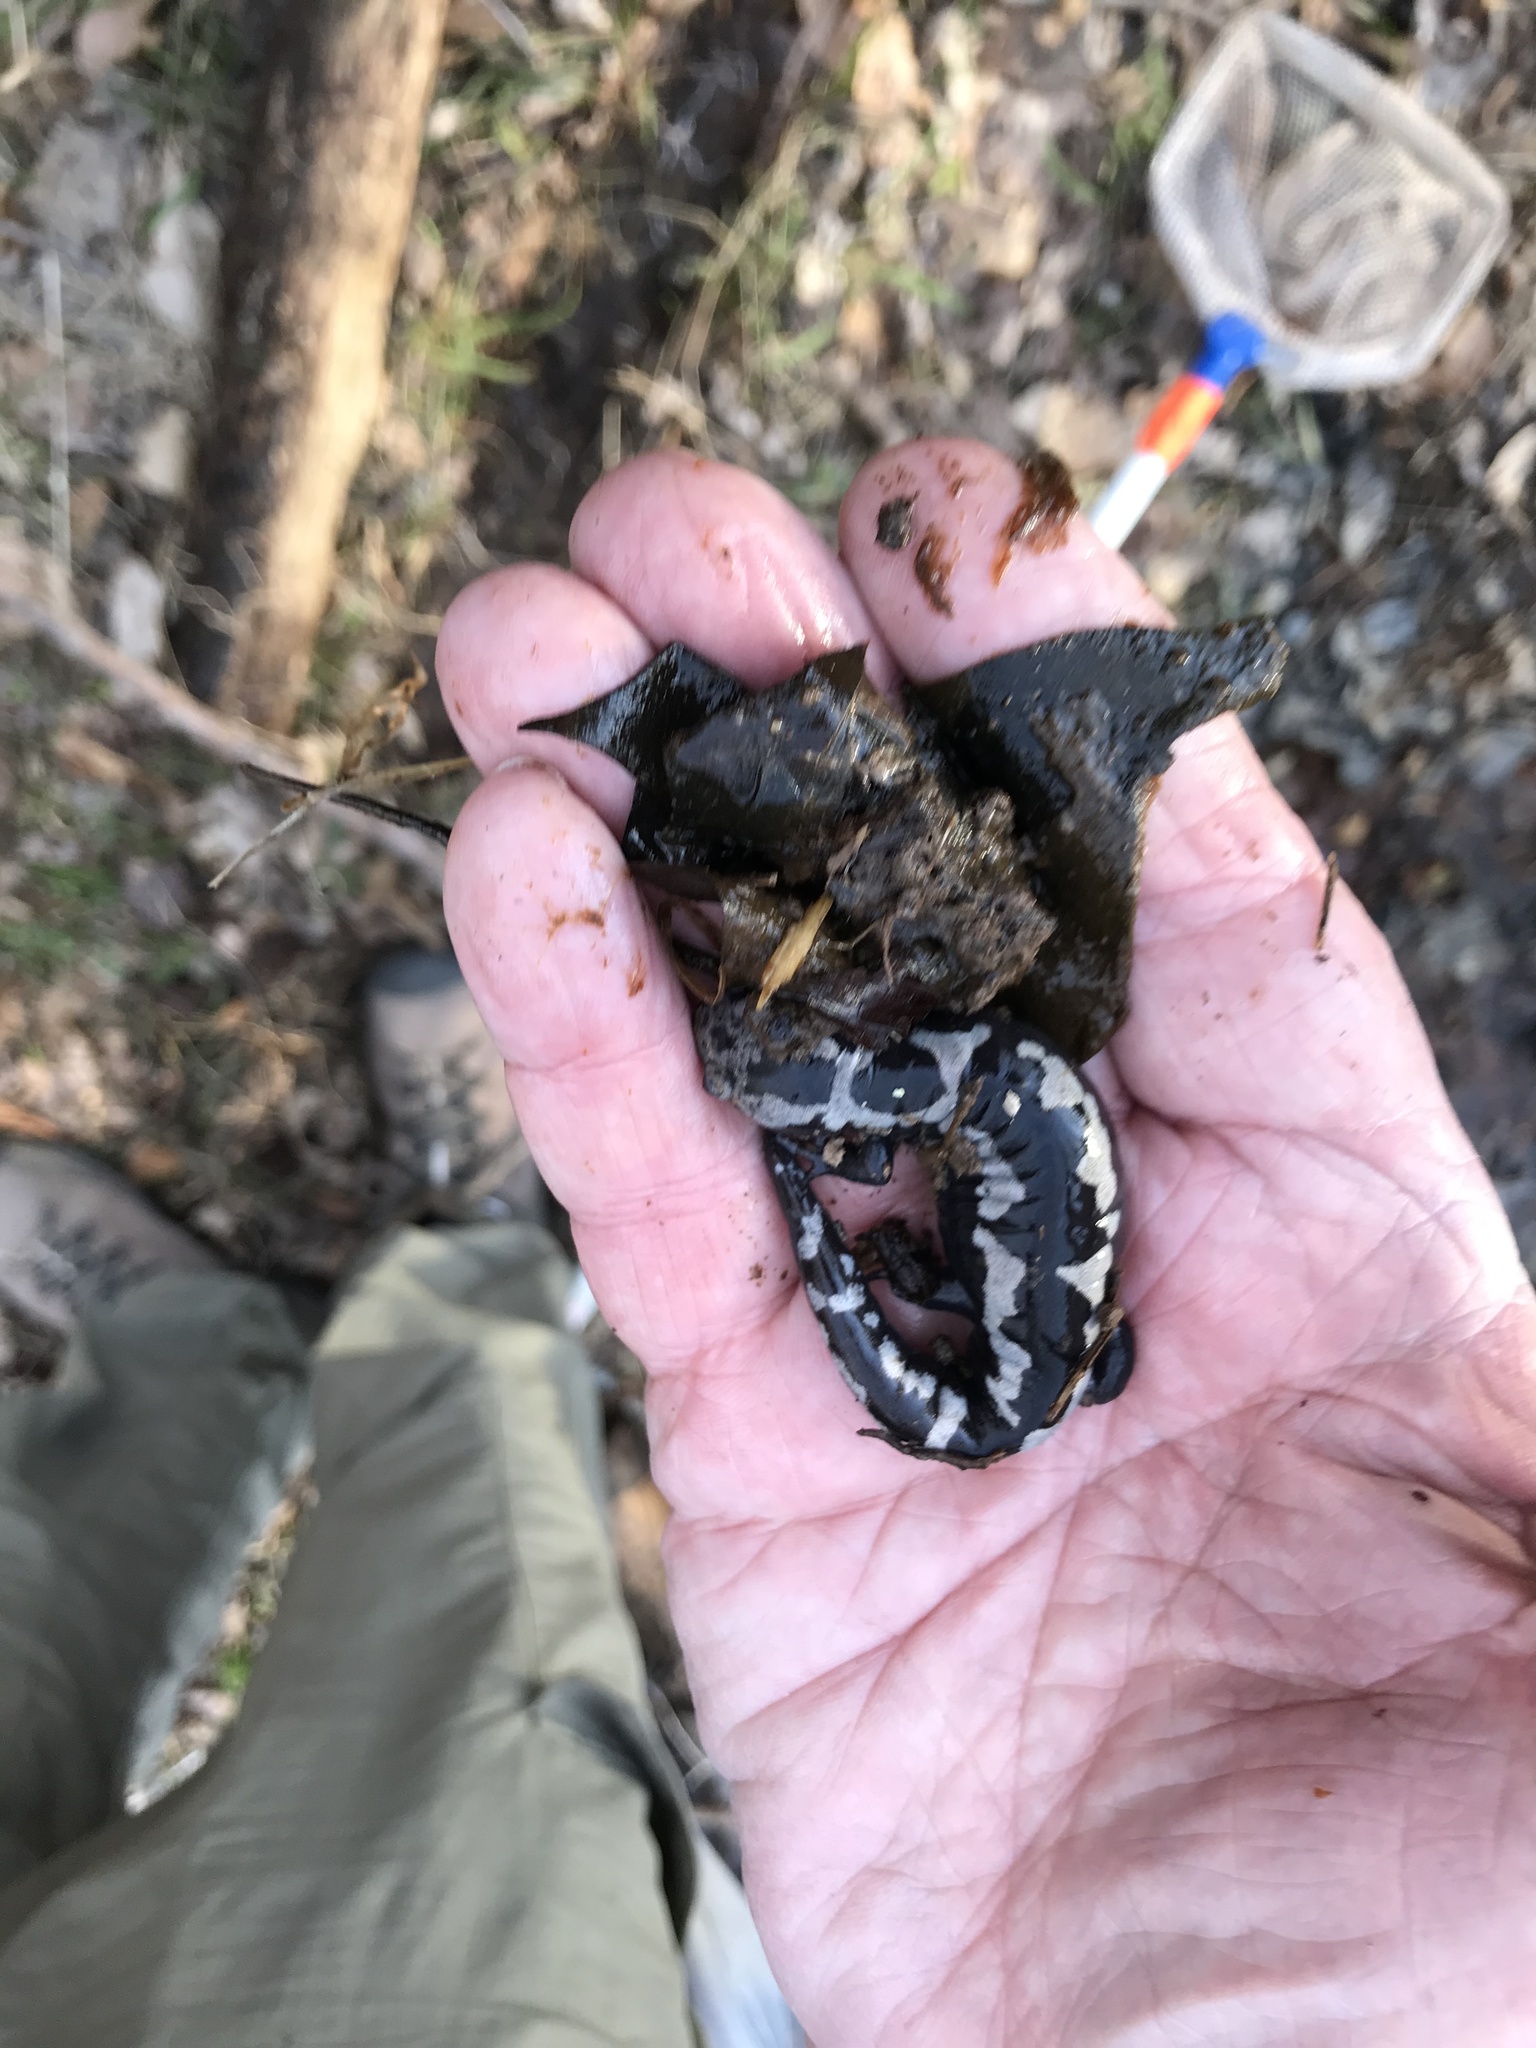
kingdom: Animalia
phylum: Chordata
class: Amphibia
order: Caudata
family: Ambystomatidae
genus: Ambystoma
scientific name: Ambystoma opacum
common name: Marbled salamander
